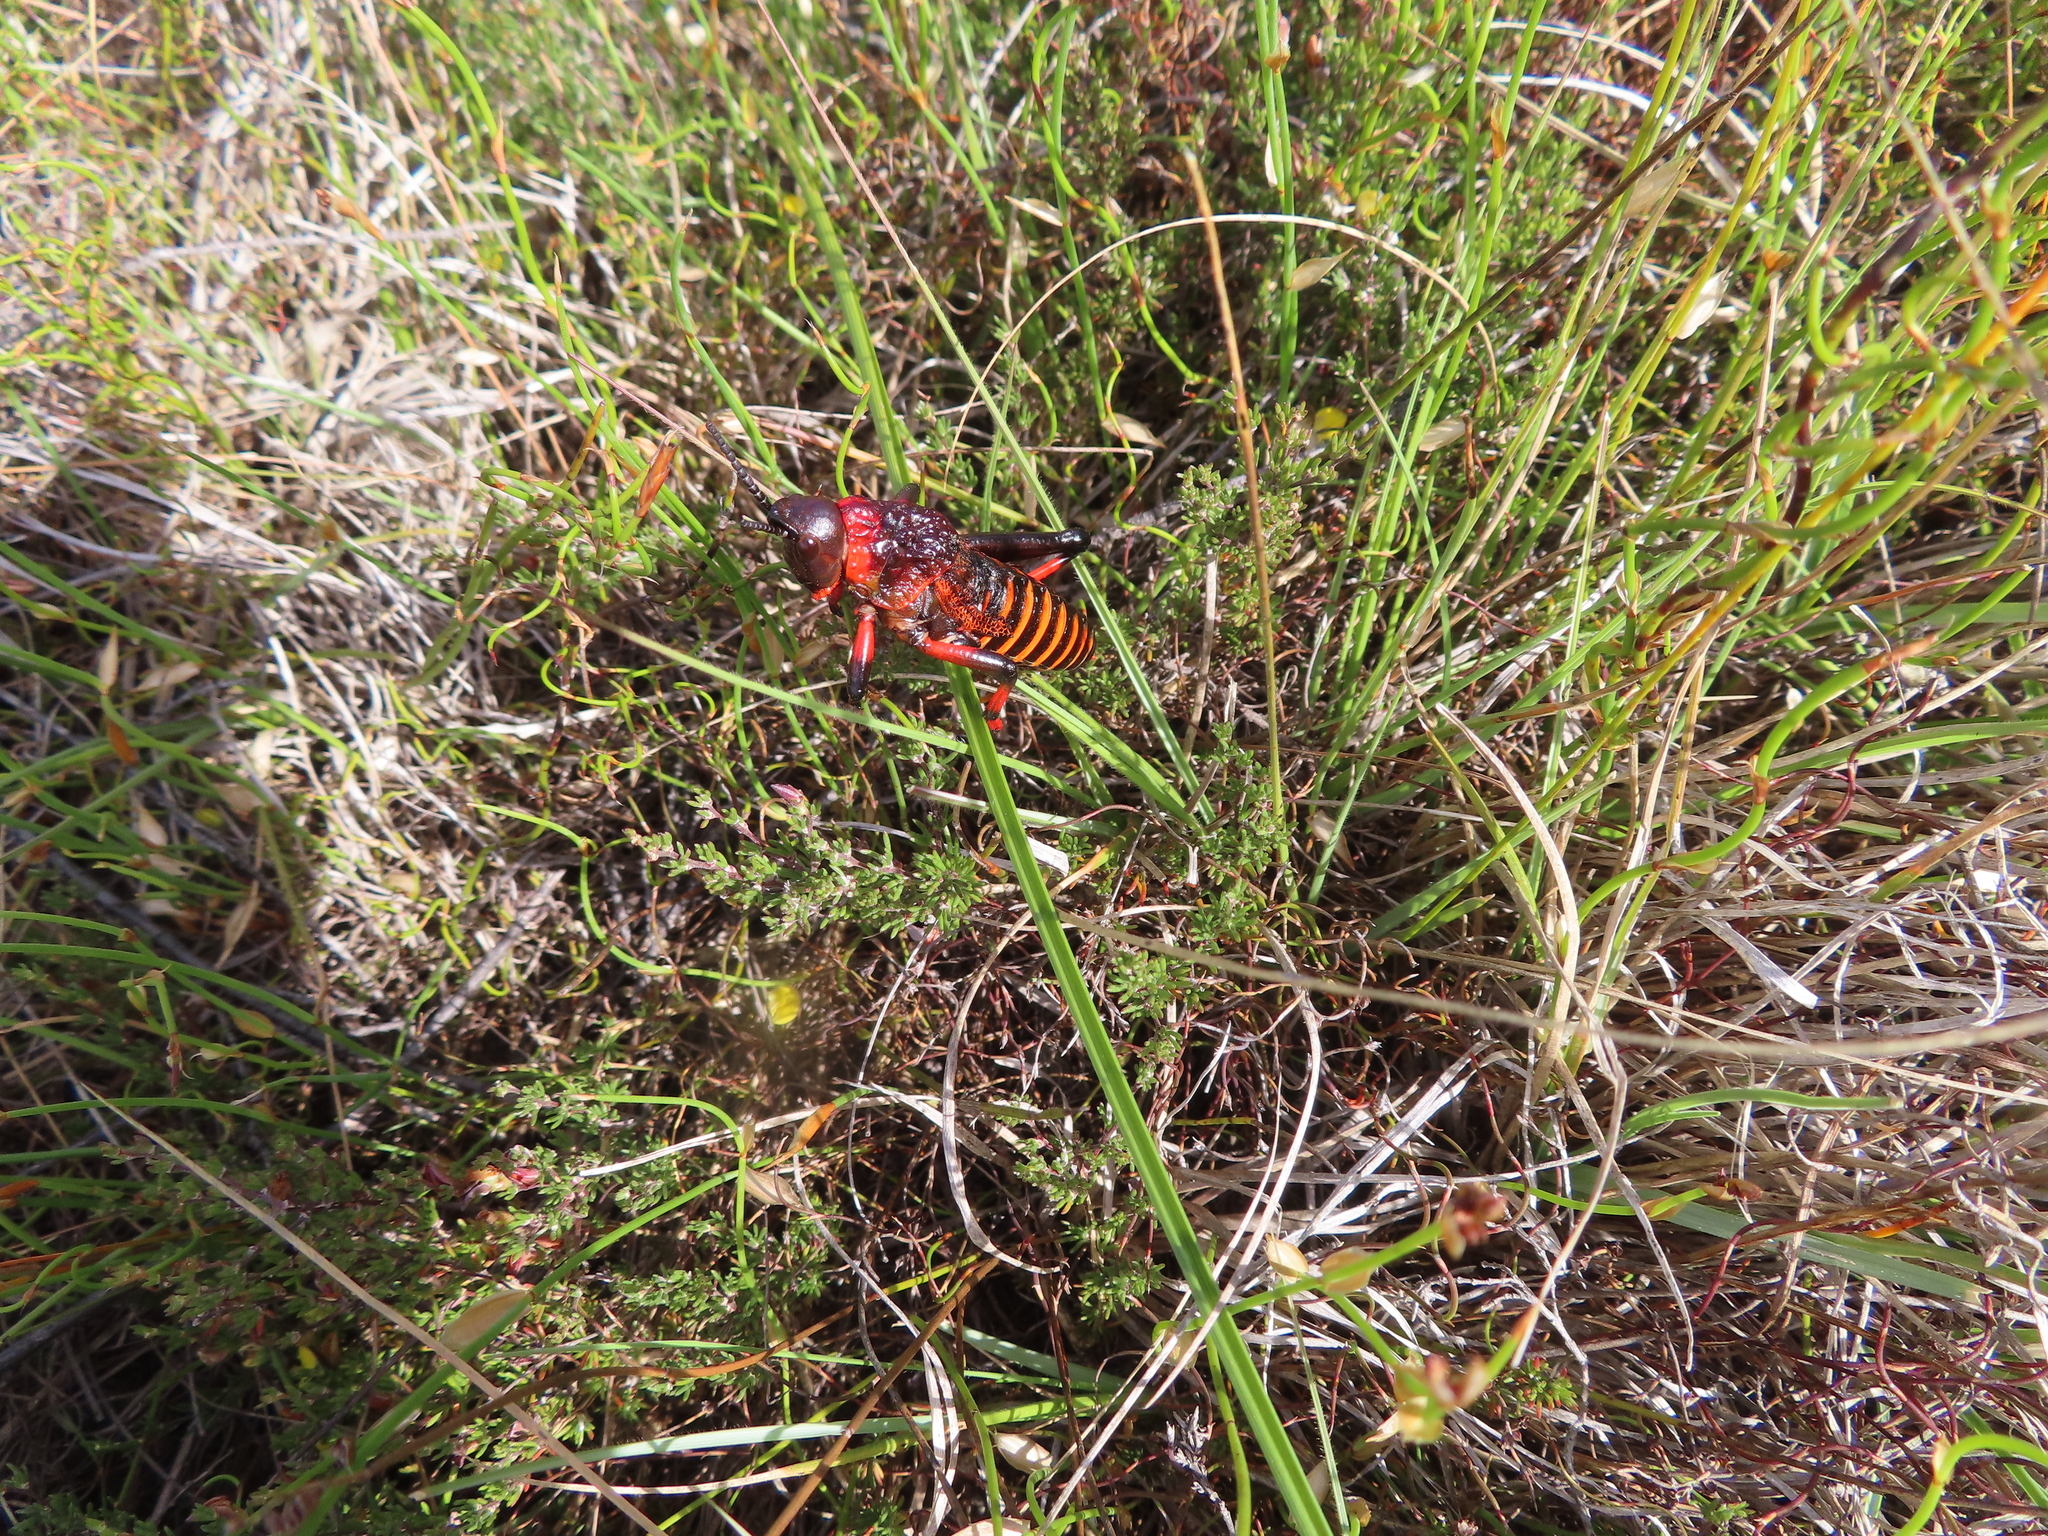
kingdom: Animalia
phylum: Arthropoda
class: Insecta
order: Orthoptera
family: Pyrgomorphidae
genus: Dictyophorus
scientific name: Dictyophorus spumans
